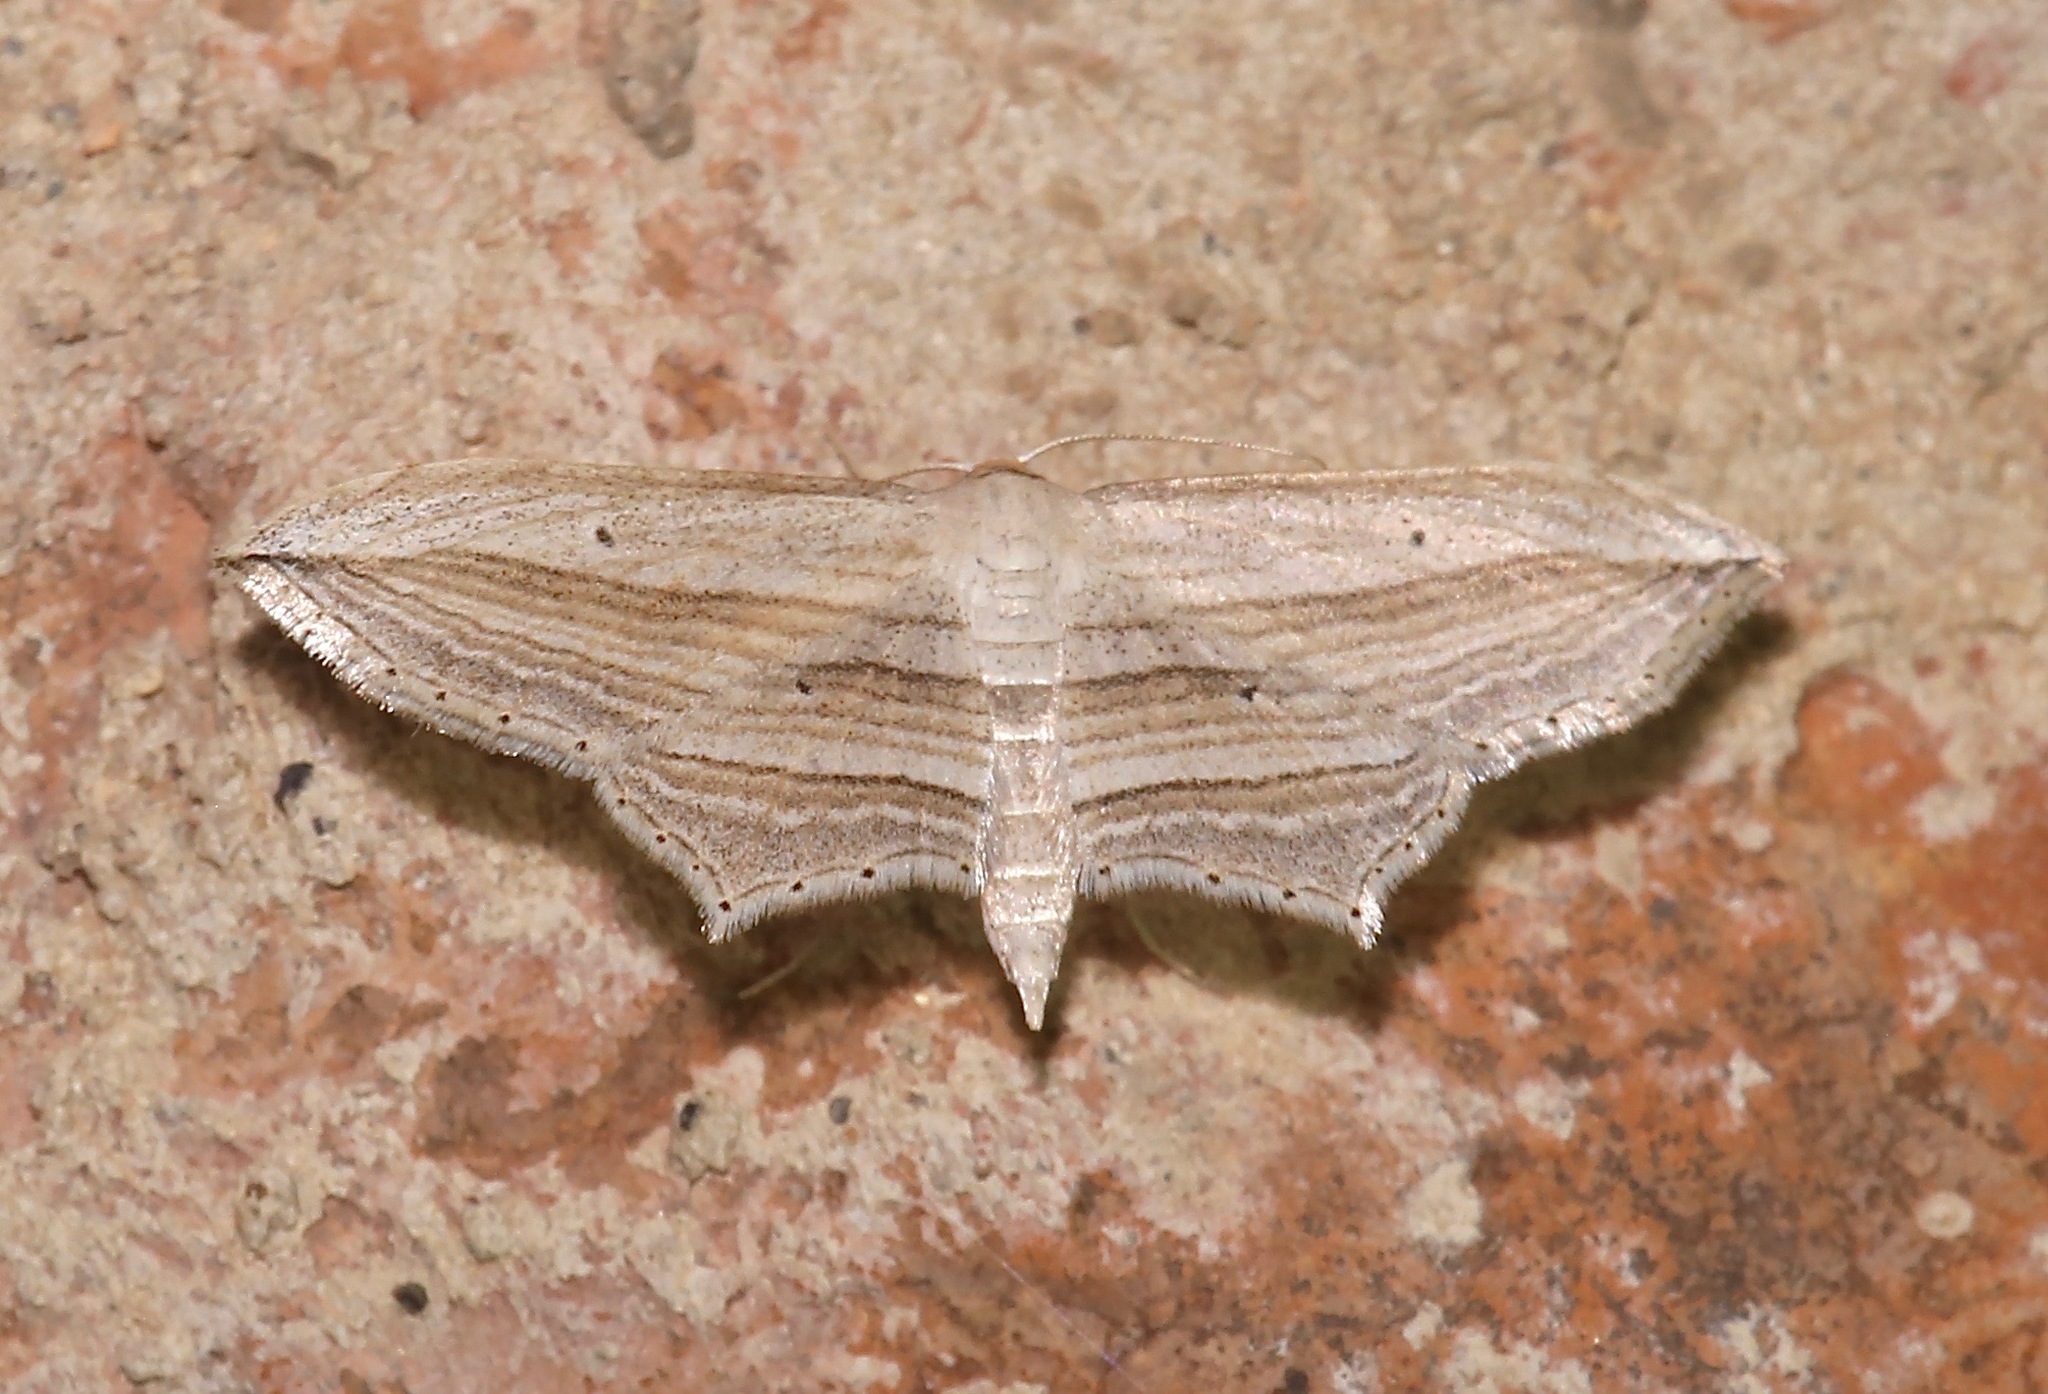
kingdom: Animalia
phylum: Arthropoda
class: Insecta
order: Lepidoptera
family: Geometridae
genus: Arcobara
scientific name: Arcobara multilineata
